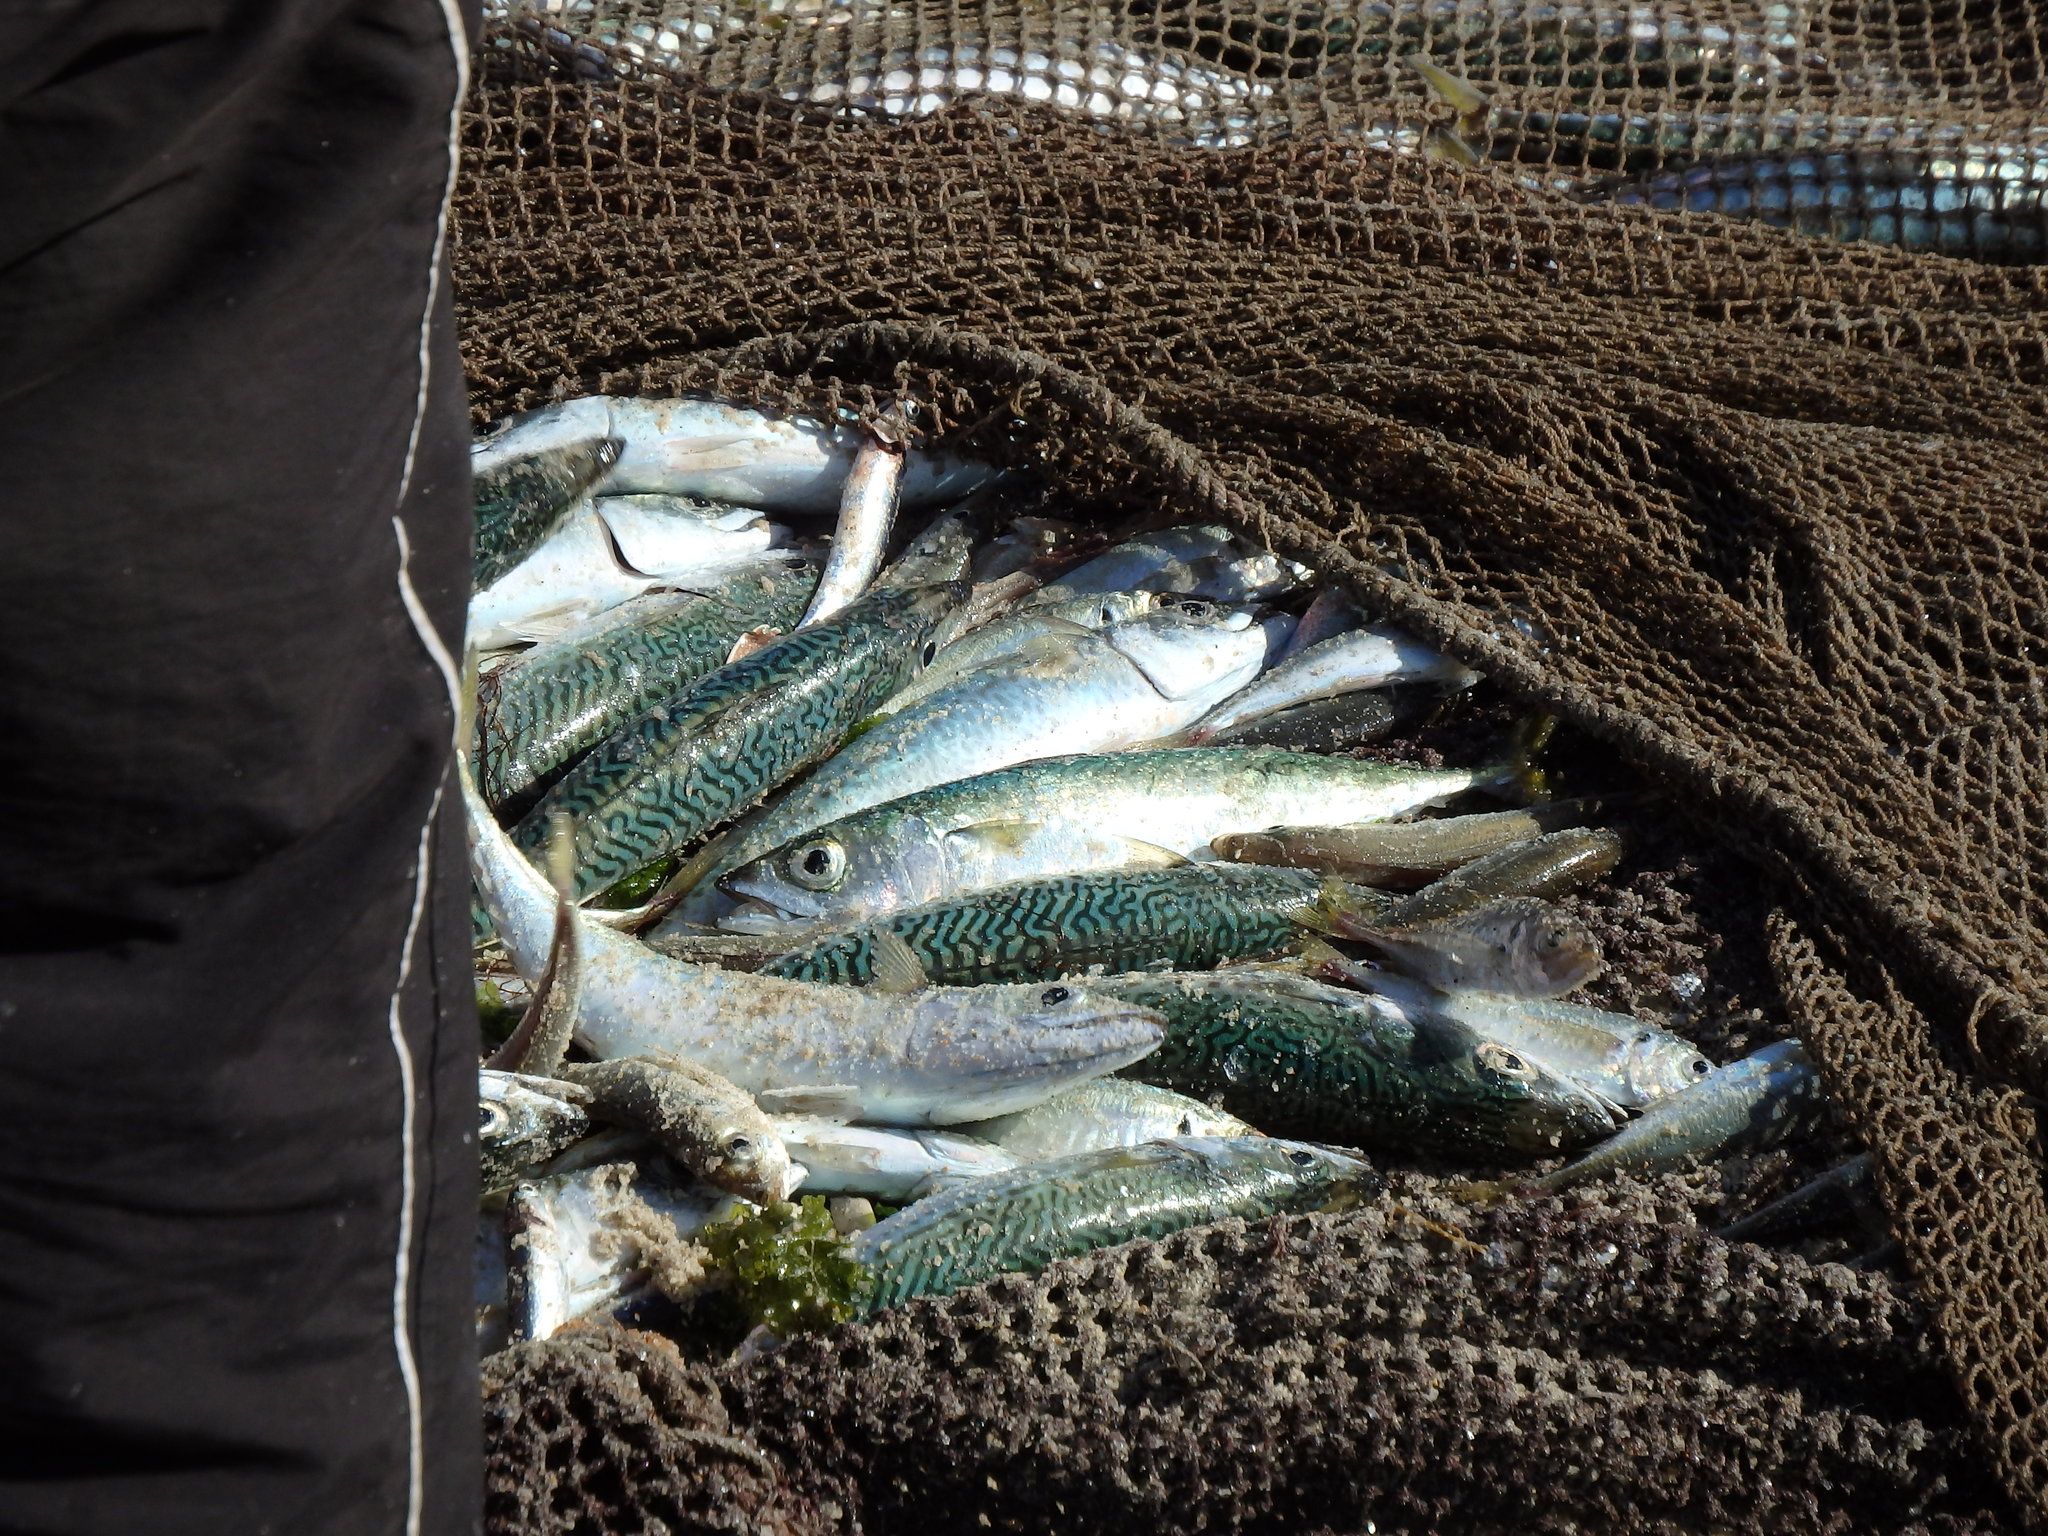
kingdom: Animalia
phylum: Chordata
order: Perciformes
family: Scombridae
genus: Scomber
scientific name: Scomber colias
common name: Atlantic chub mackerel
